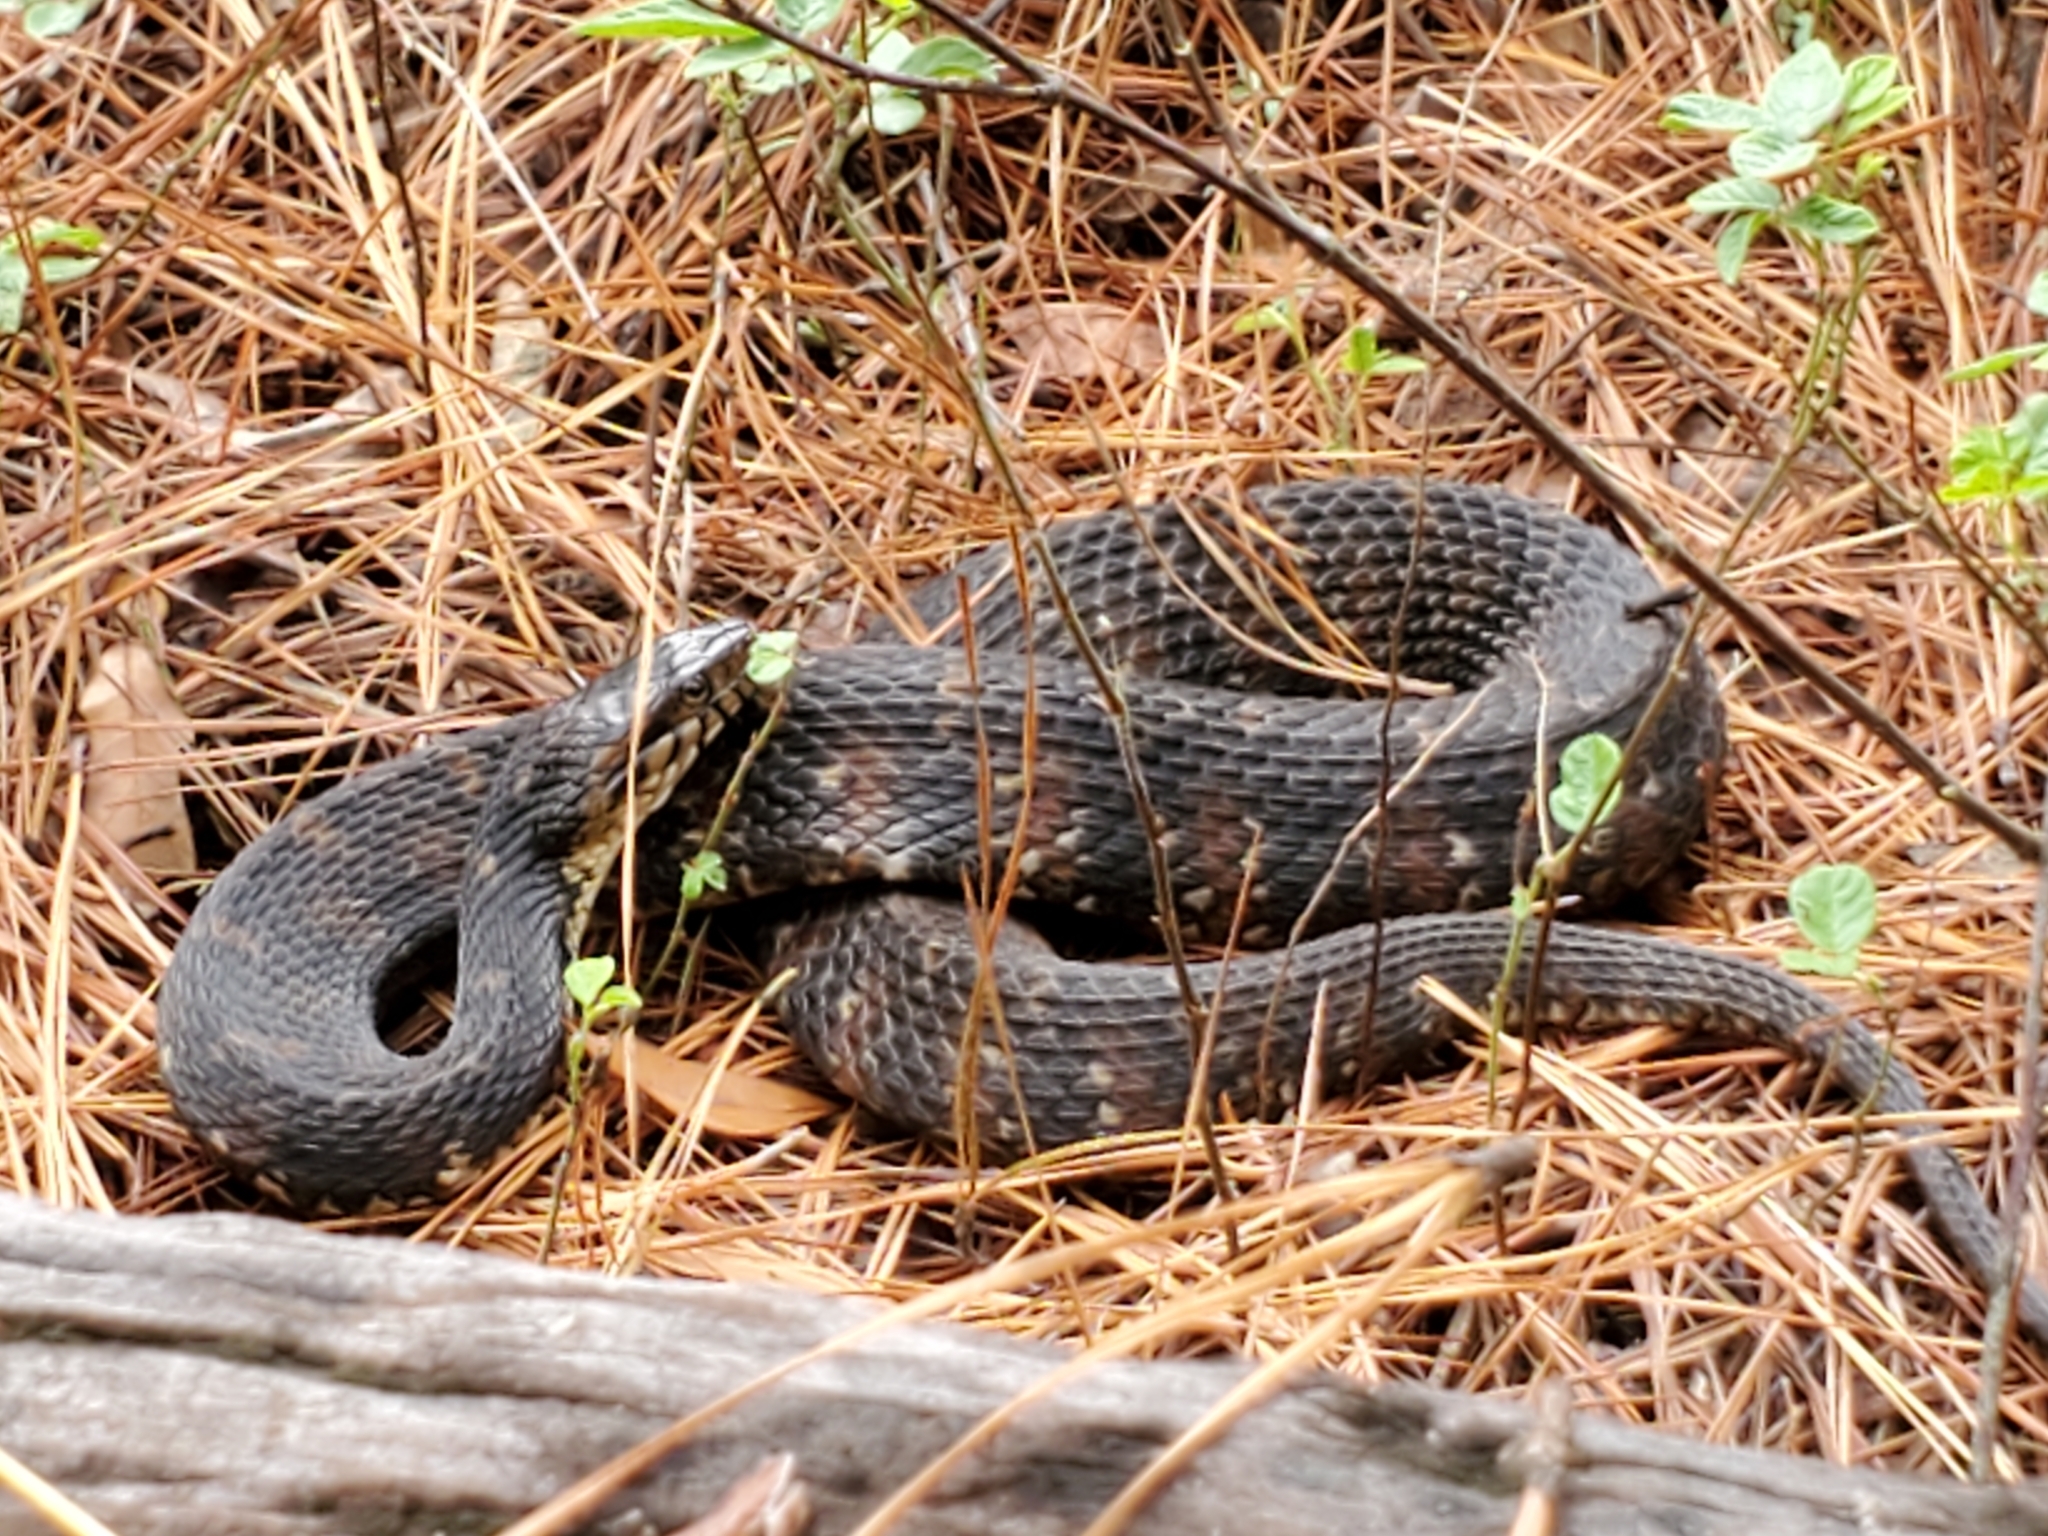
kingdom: Animalia
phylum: Chordata
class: Squamata
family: Colubridae
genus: Nerodia
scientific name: Nerodia fasciata
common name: Southern water snake
